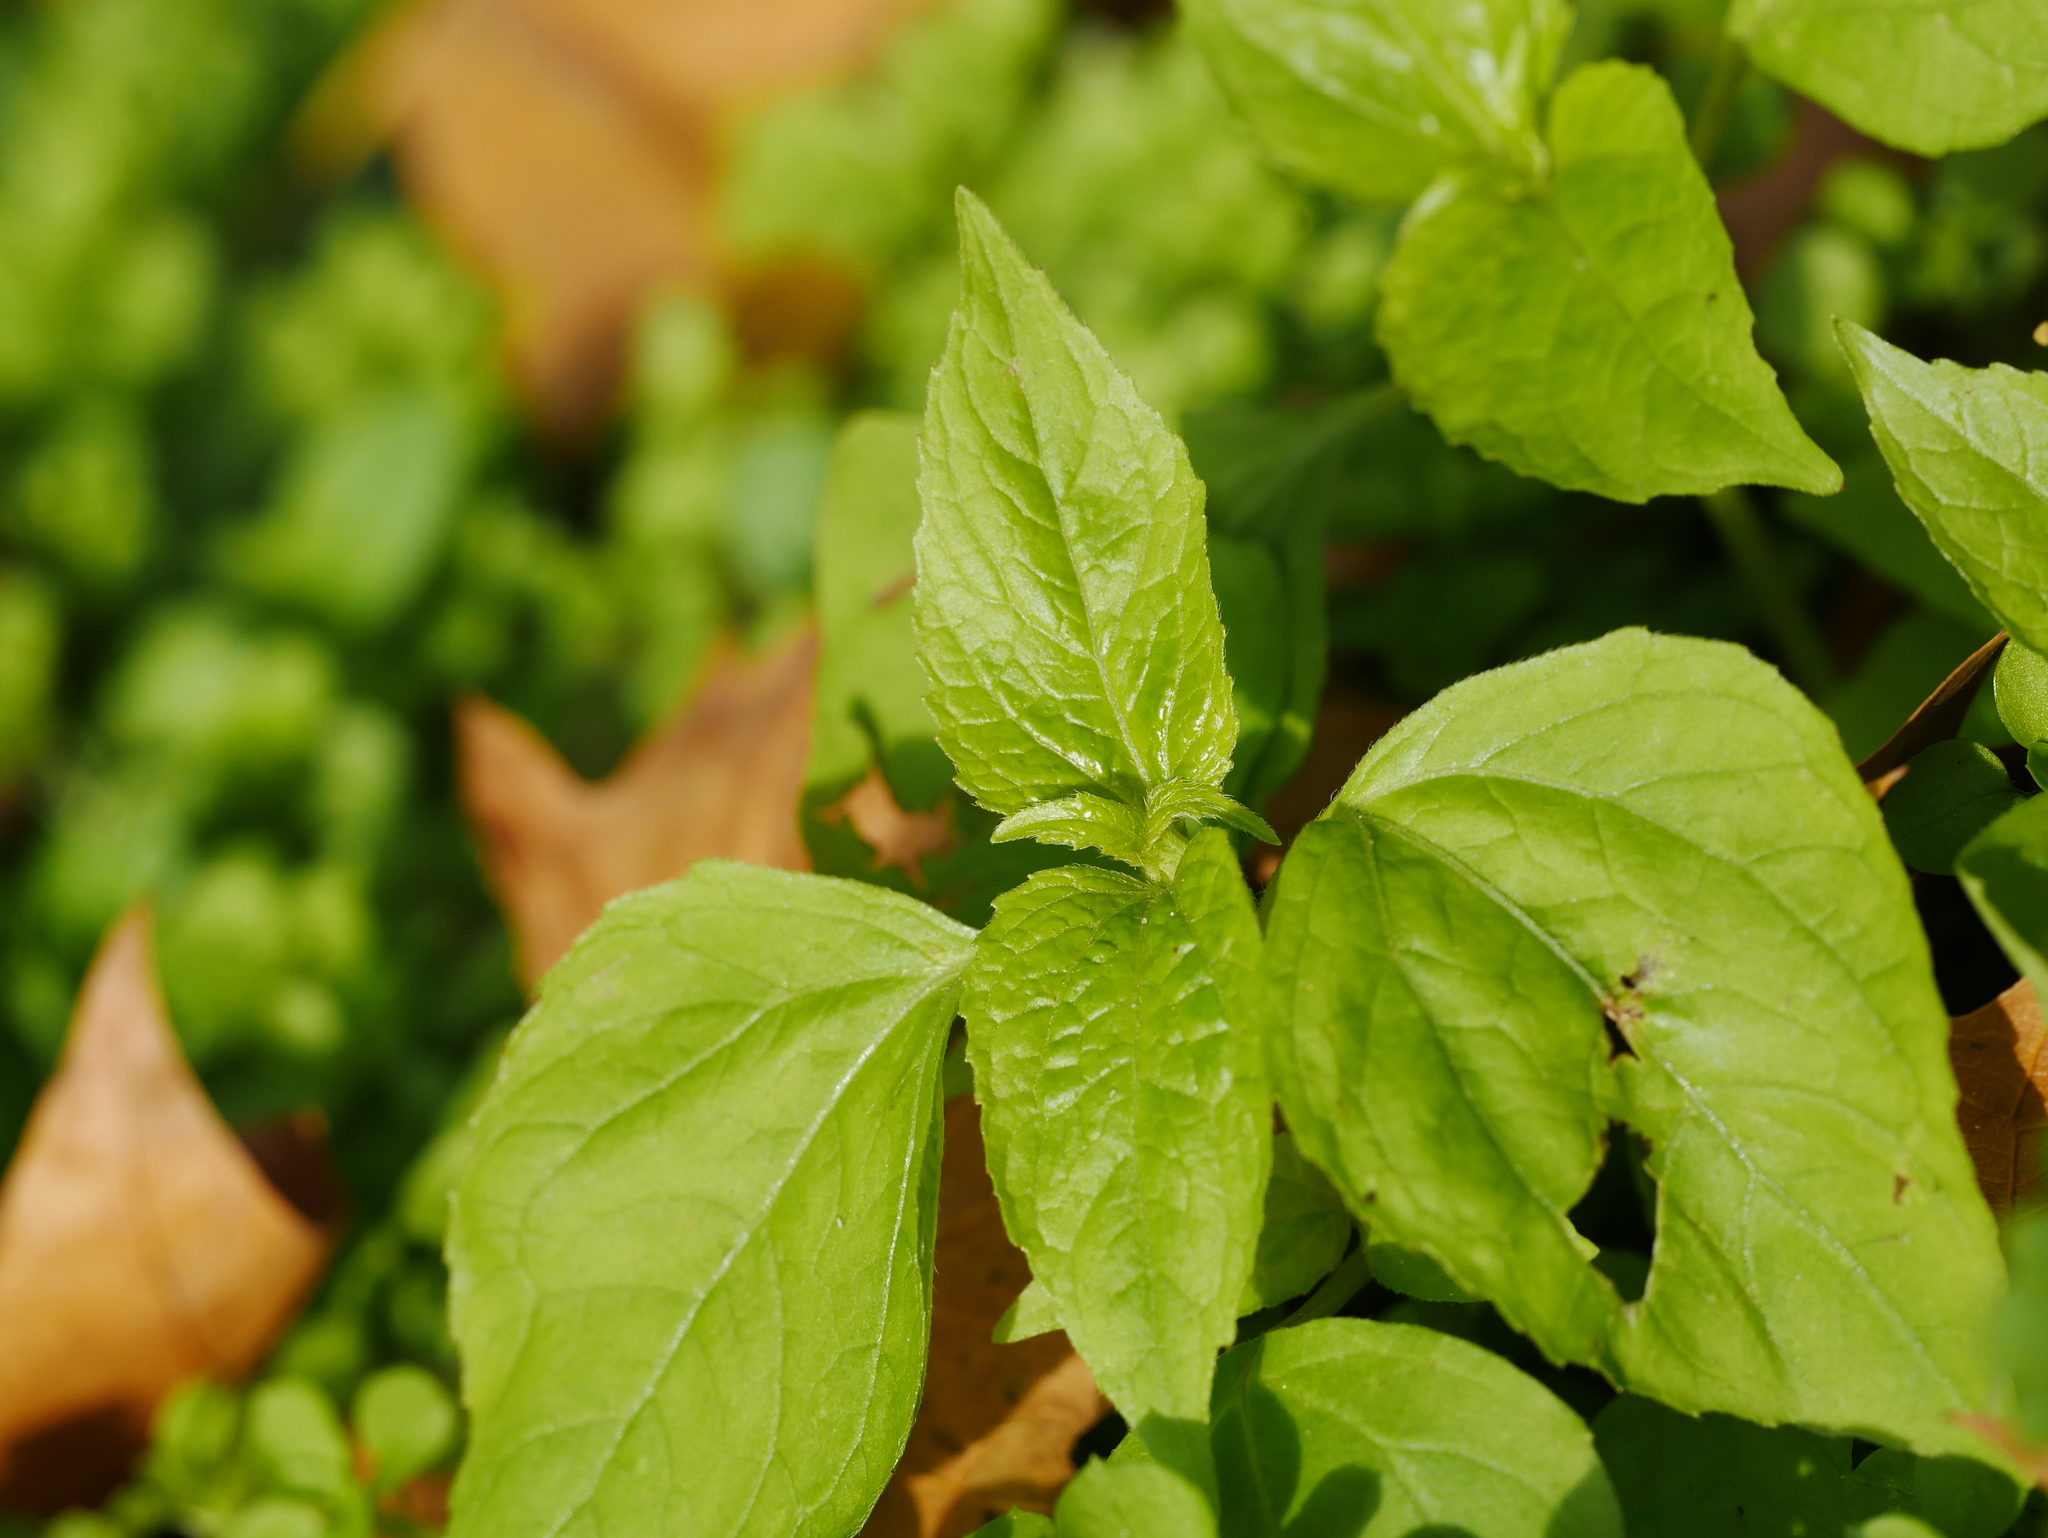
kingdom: Plantae
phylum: Tracheophyta
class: Magnoliopsida
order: Asterales
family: Asteraceae
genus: Galinsoga
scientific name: Galinsoga parviflora
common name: Gallant soldier
